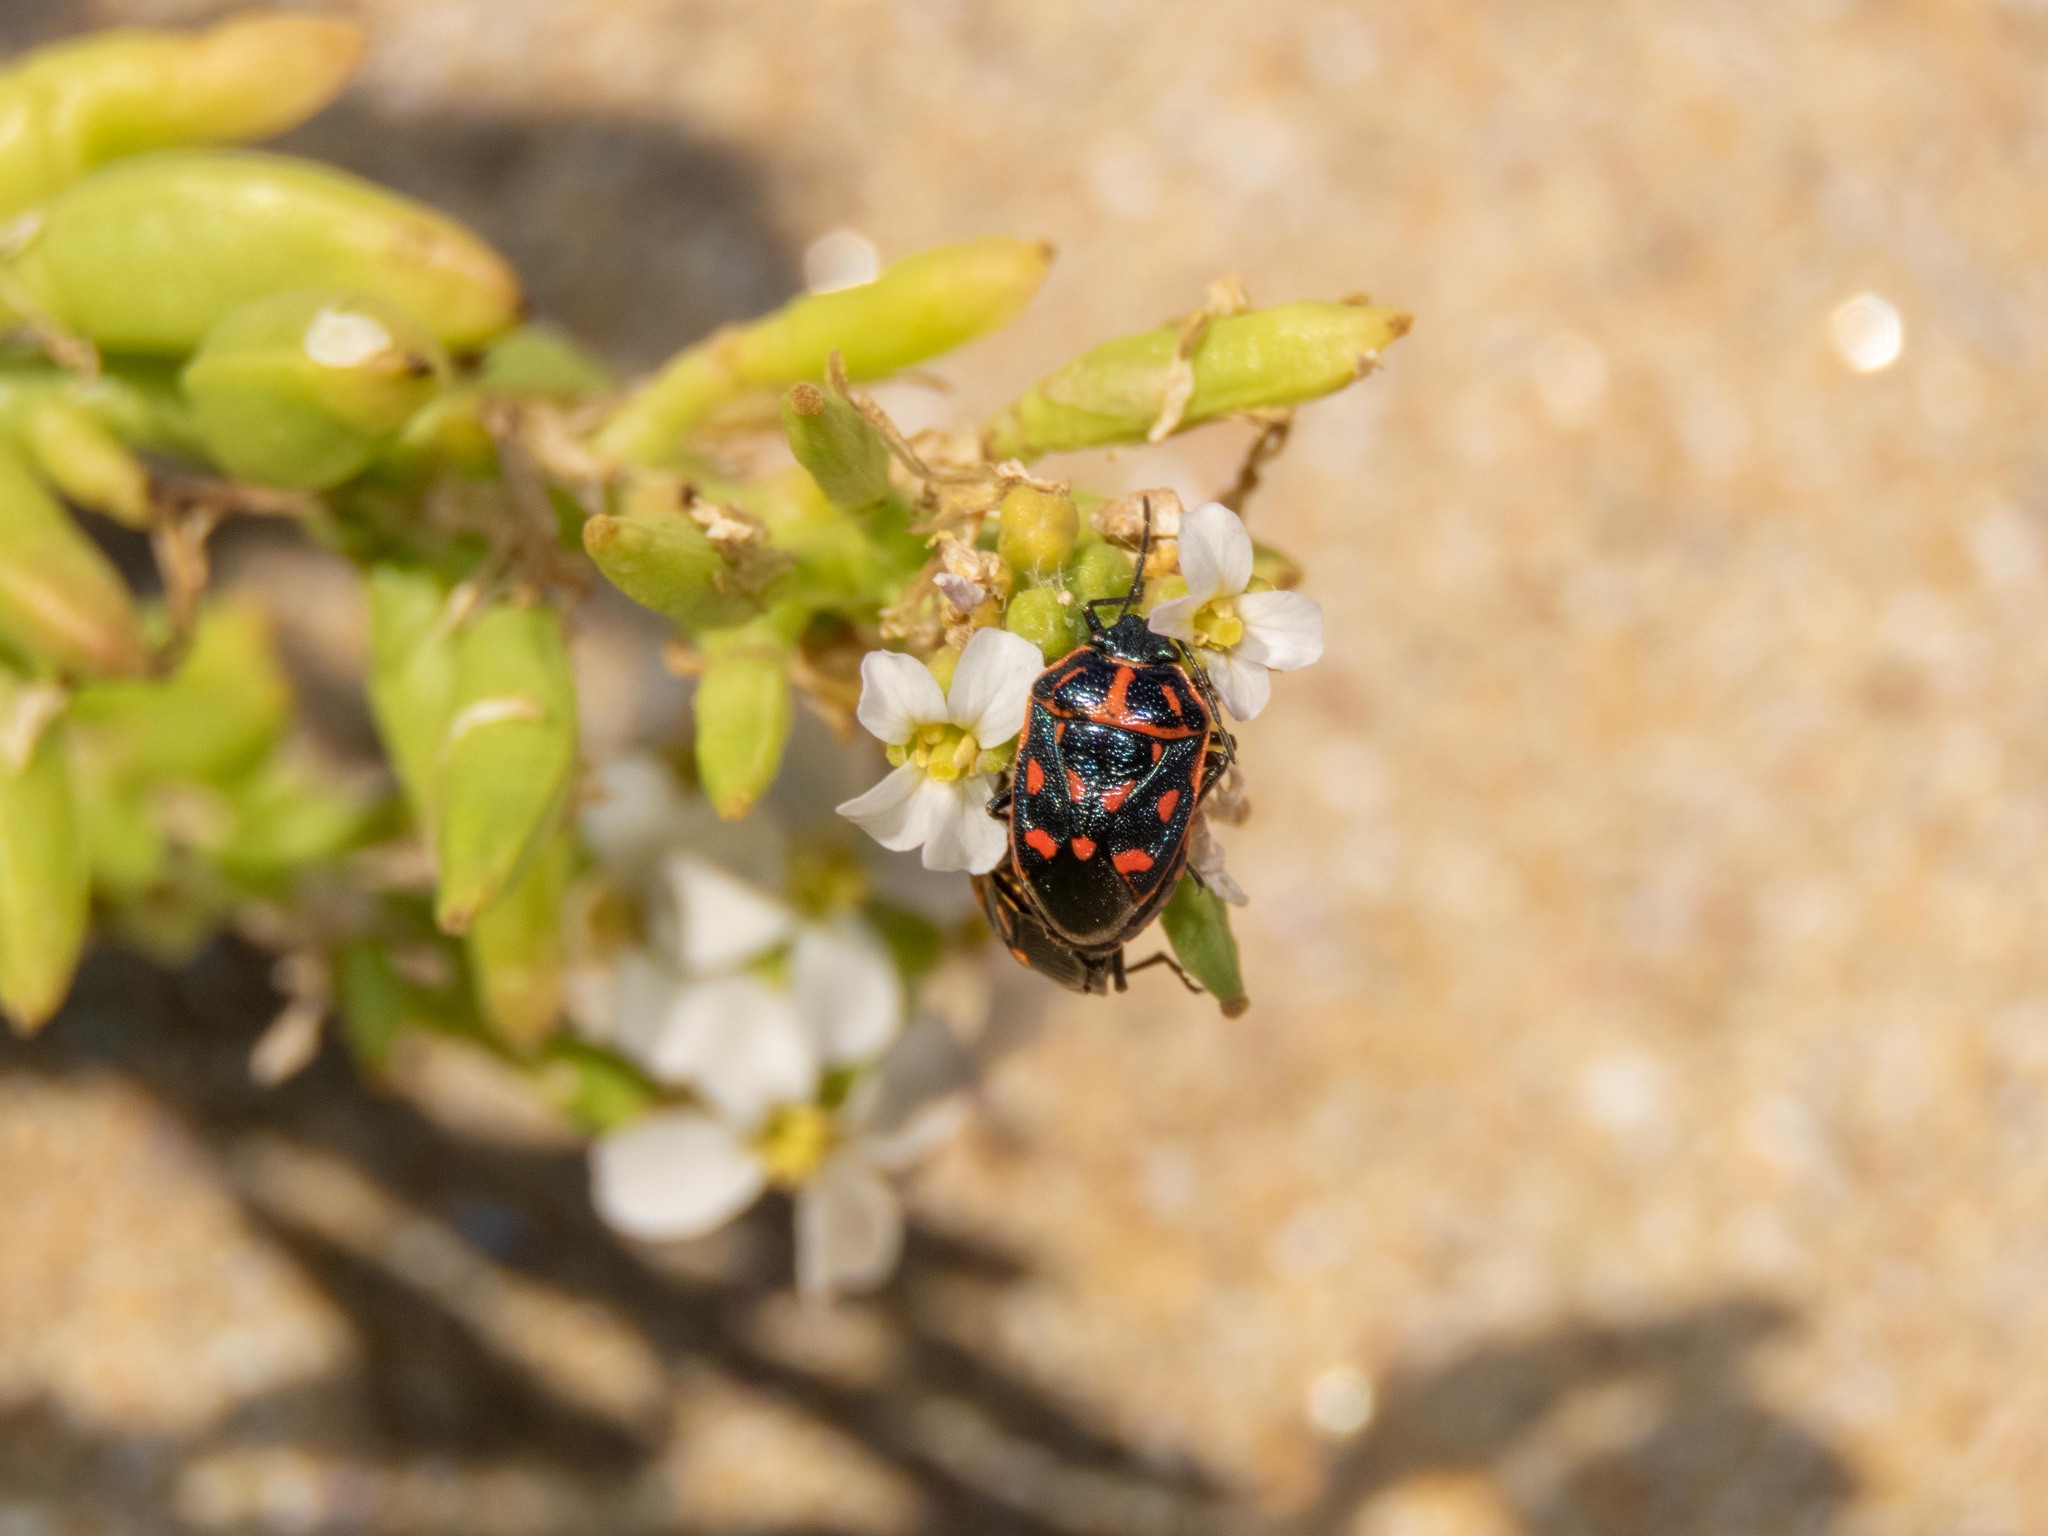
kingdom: Animalia
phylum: Arthropoda
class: Insecta
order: Hemiptera
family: Pentatomidae
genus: Eurydema
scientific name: Eurydema herbacea
